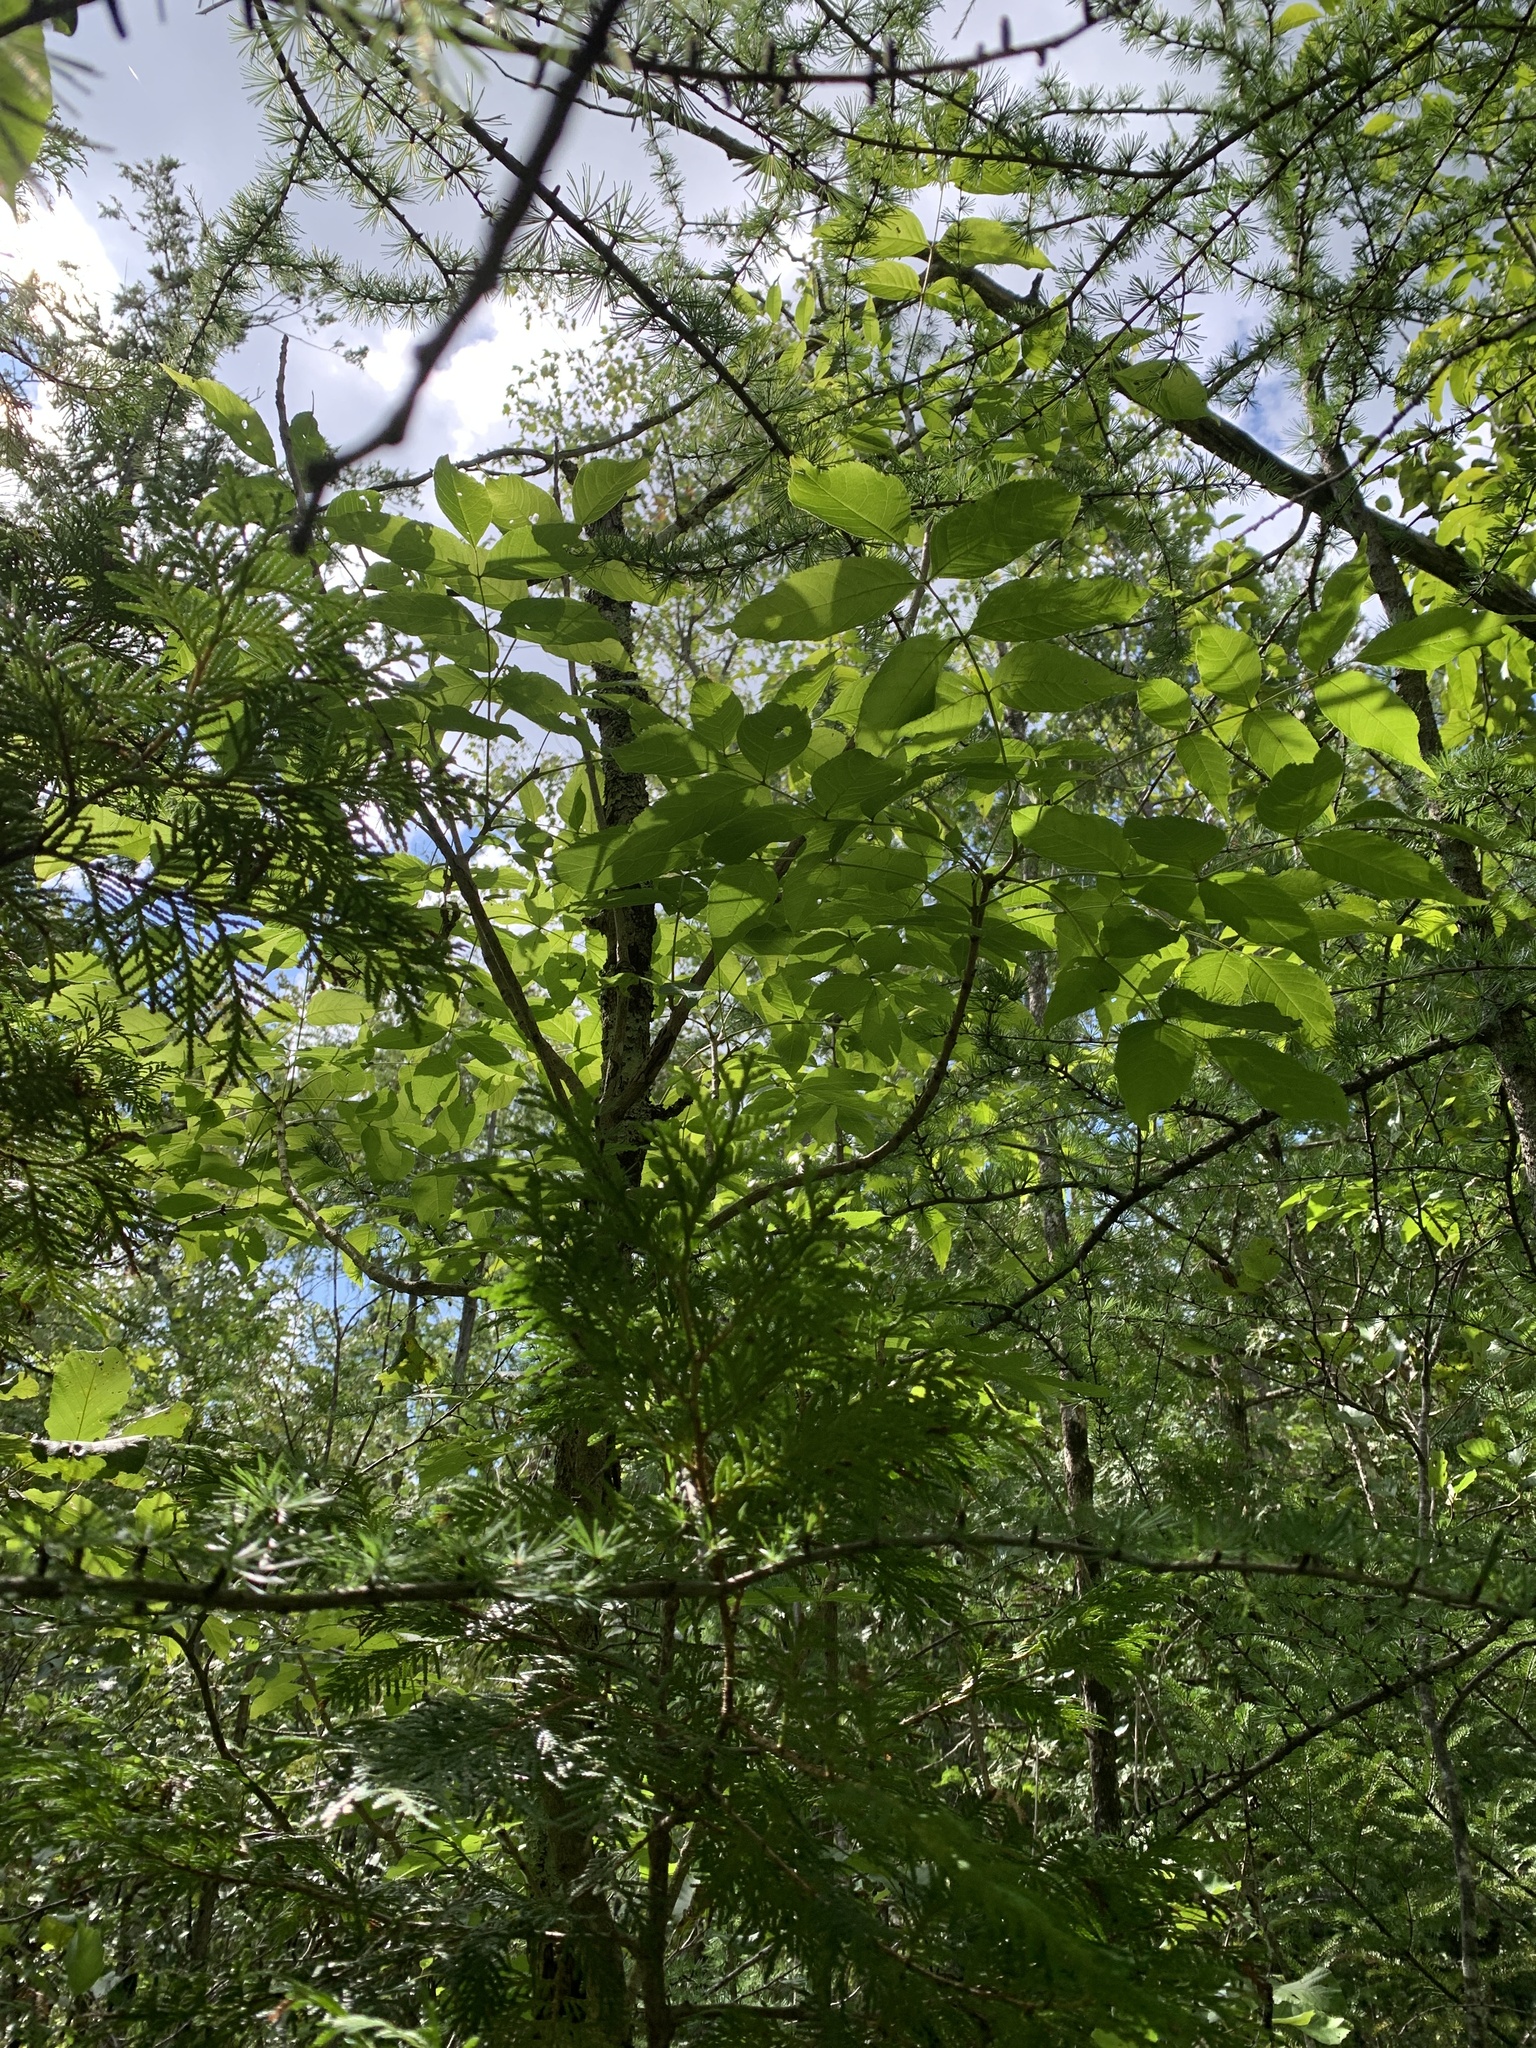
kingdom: Plantae
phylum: Tracheophyta
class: Magnoliopsida
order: Lamiales
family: Oleaceae
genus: Fraxinus
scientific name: Fraxinus nigra
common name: Black ash
